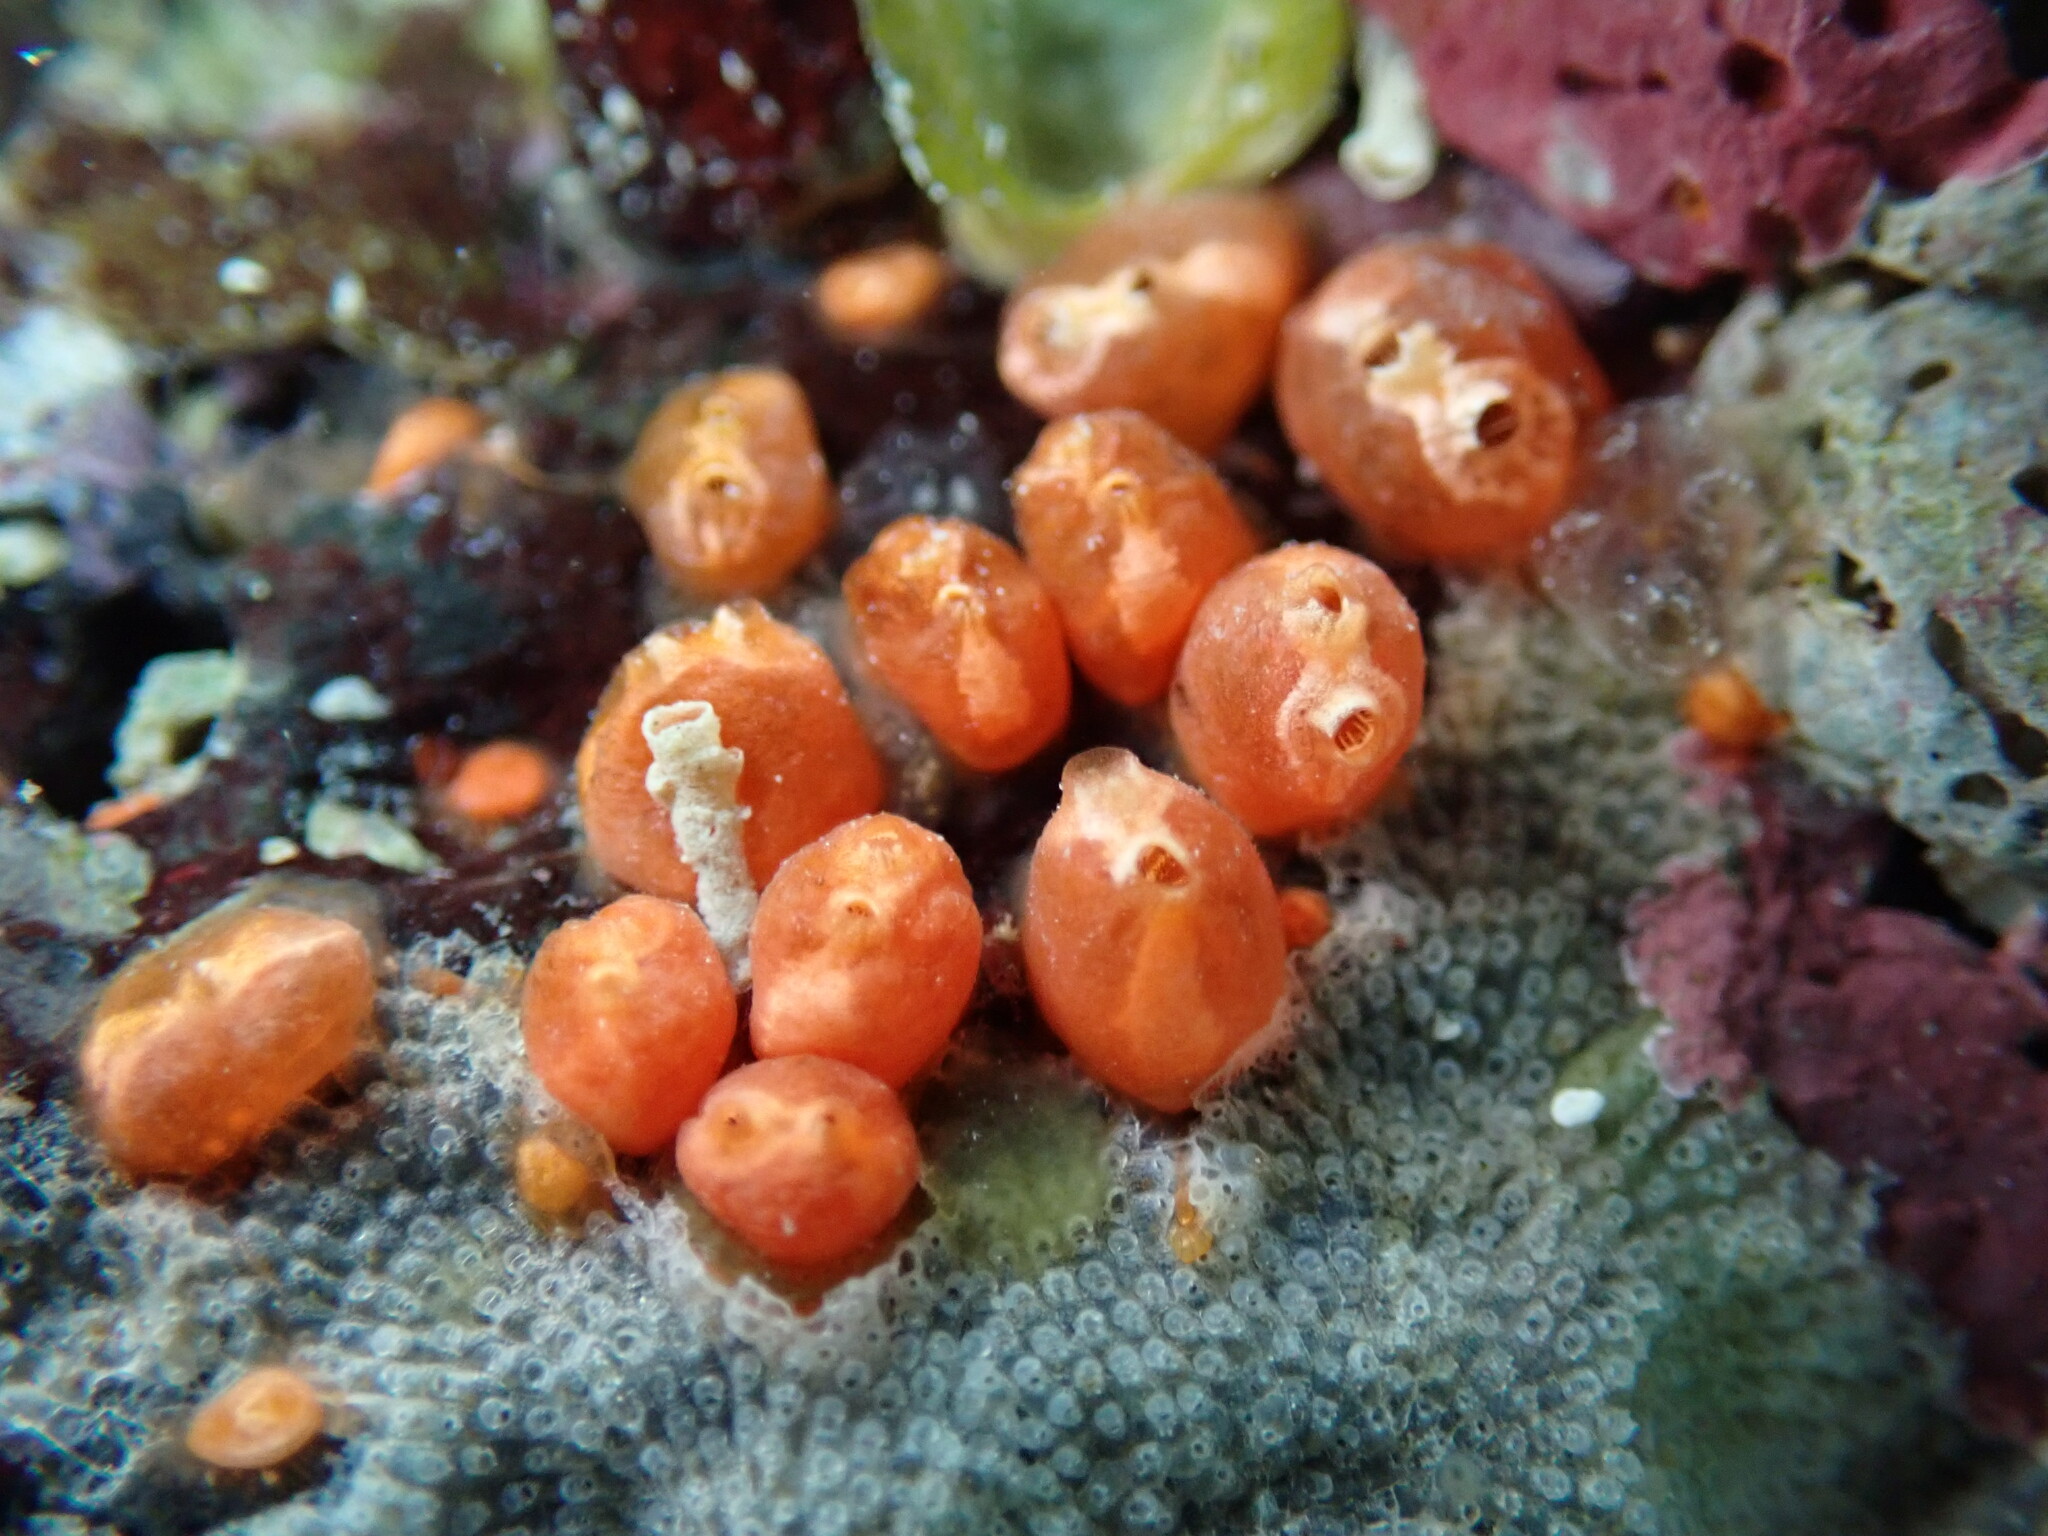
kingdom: Animalia
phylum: Chordata
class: Ascidiacea
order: Stolidobranchia
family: Styelidae
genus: Metandrocarpa
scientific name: Metandrocarpa taylori
